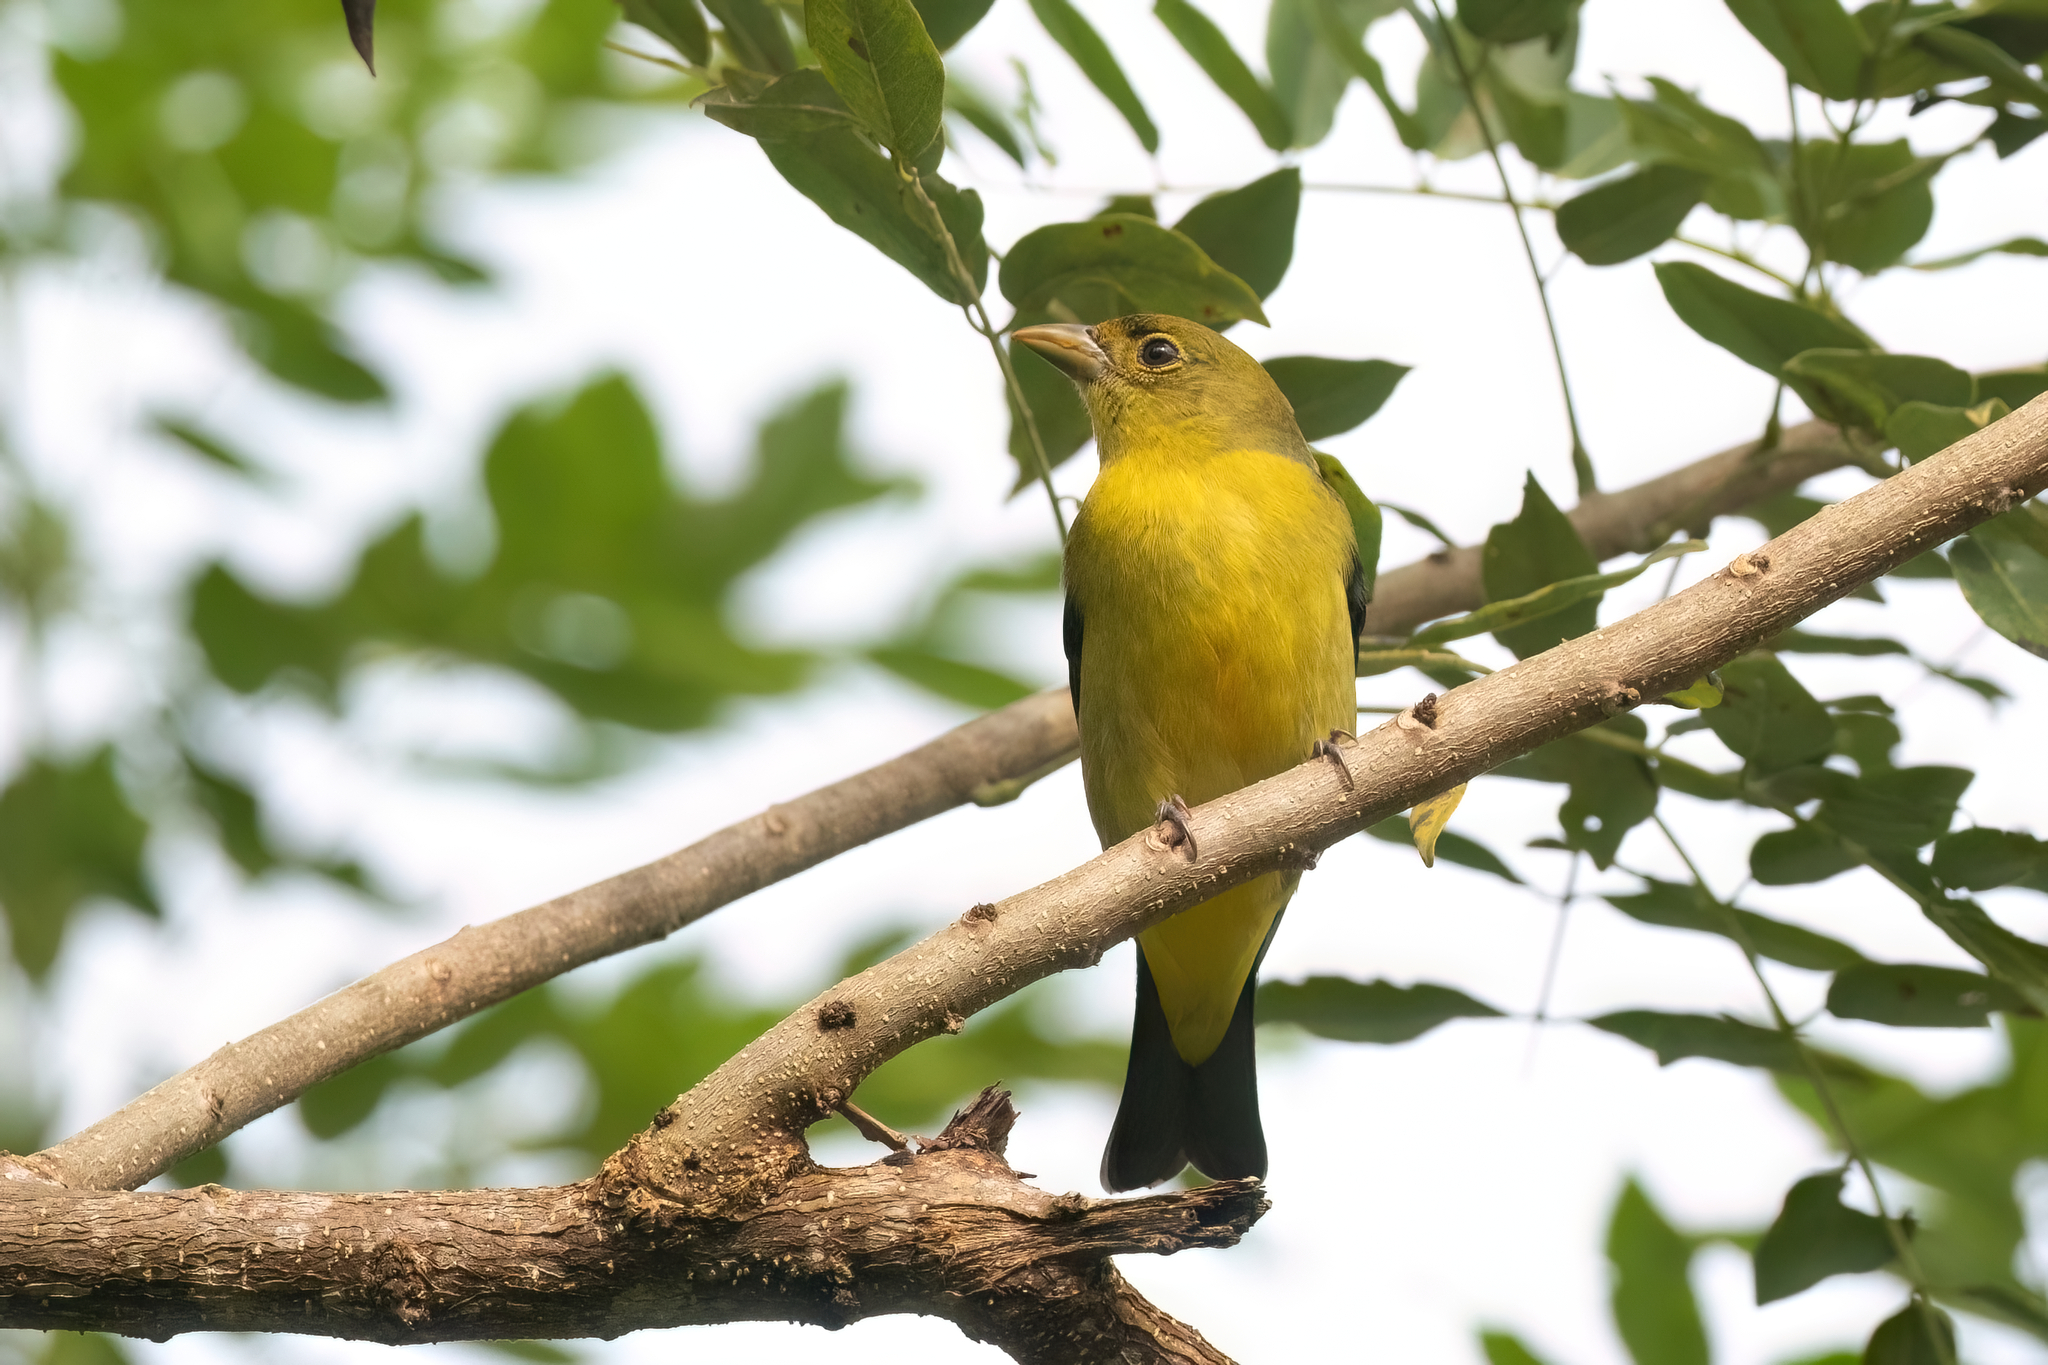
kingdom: Animalia
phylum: Chordata
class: Aves
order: Passeriformes
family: Cardinalidae
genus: Piranga
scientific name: Piranga olivacea
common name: Scarlet tanager
